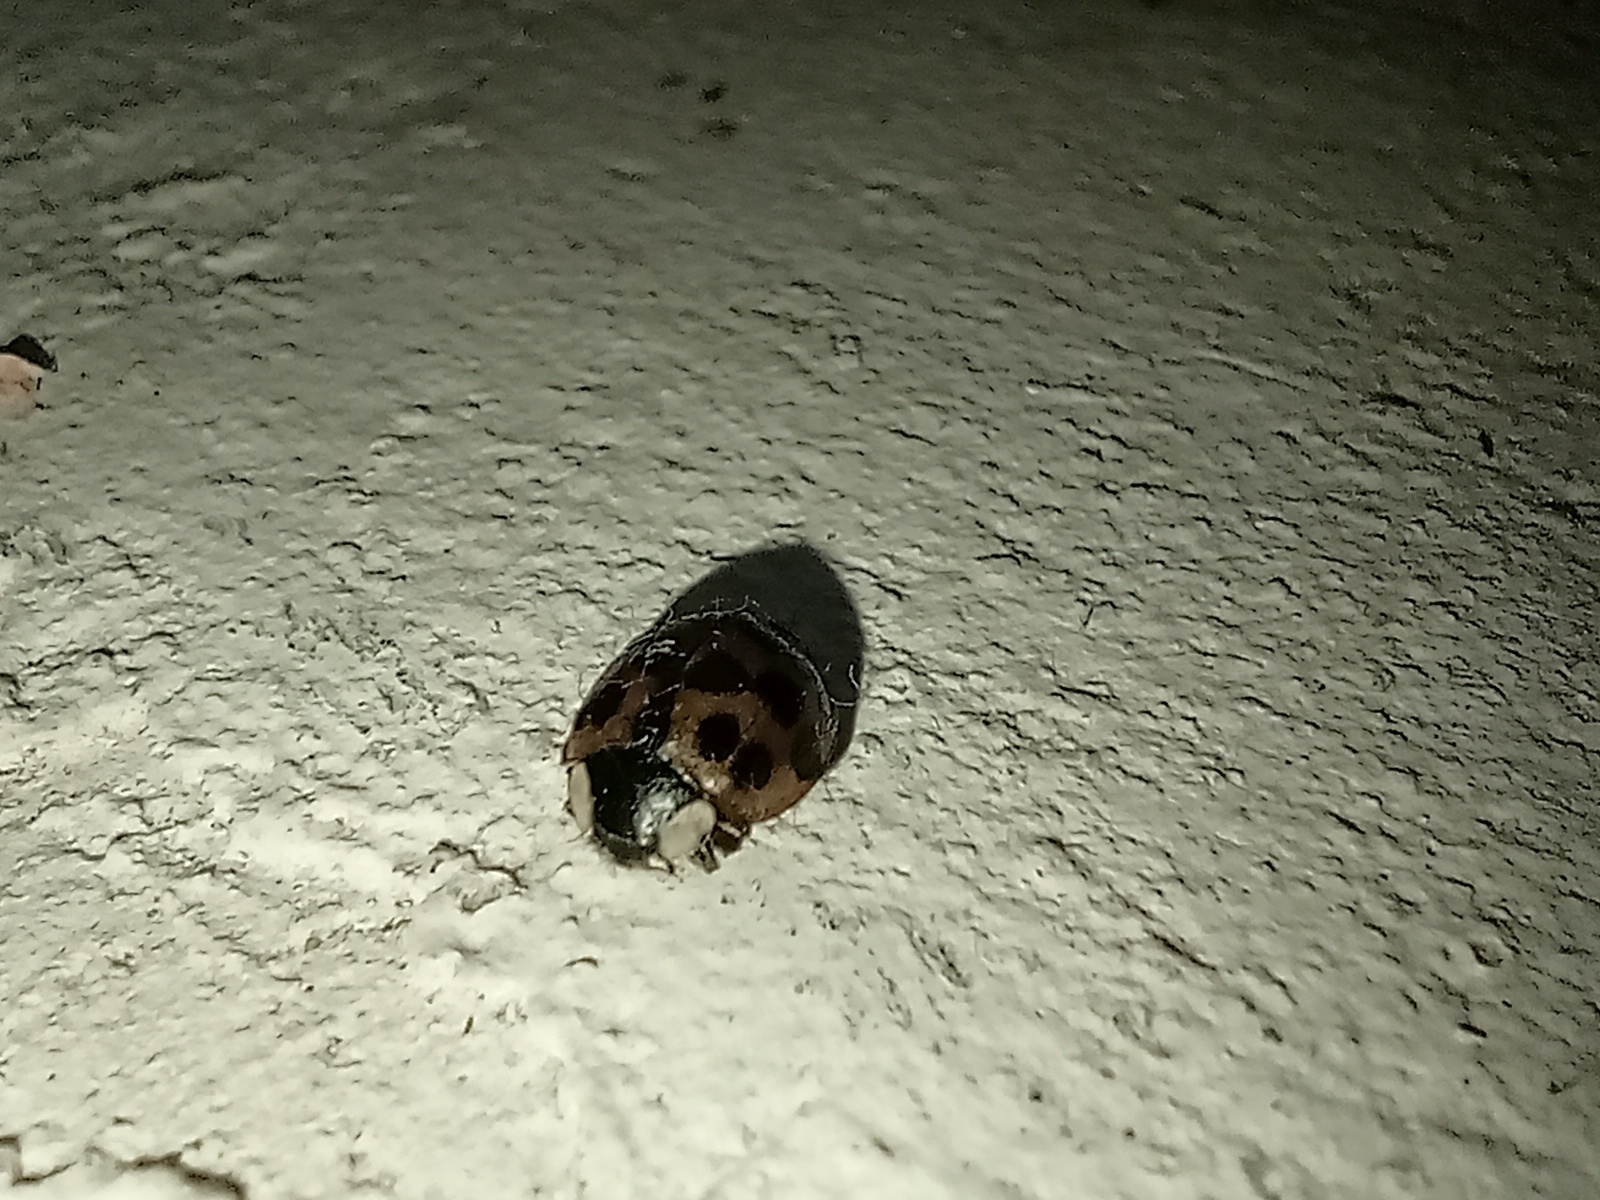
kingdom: Animalia
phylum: Arthropoda
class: Insecta
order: Coleoptera
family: Coccinellidae
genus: Harmonia
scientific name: Harmonia axyridis
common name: Harlequin ladybird
